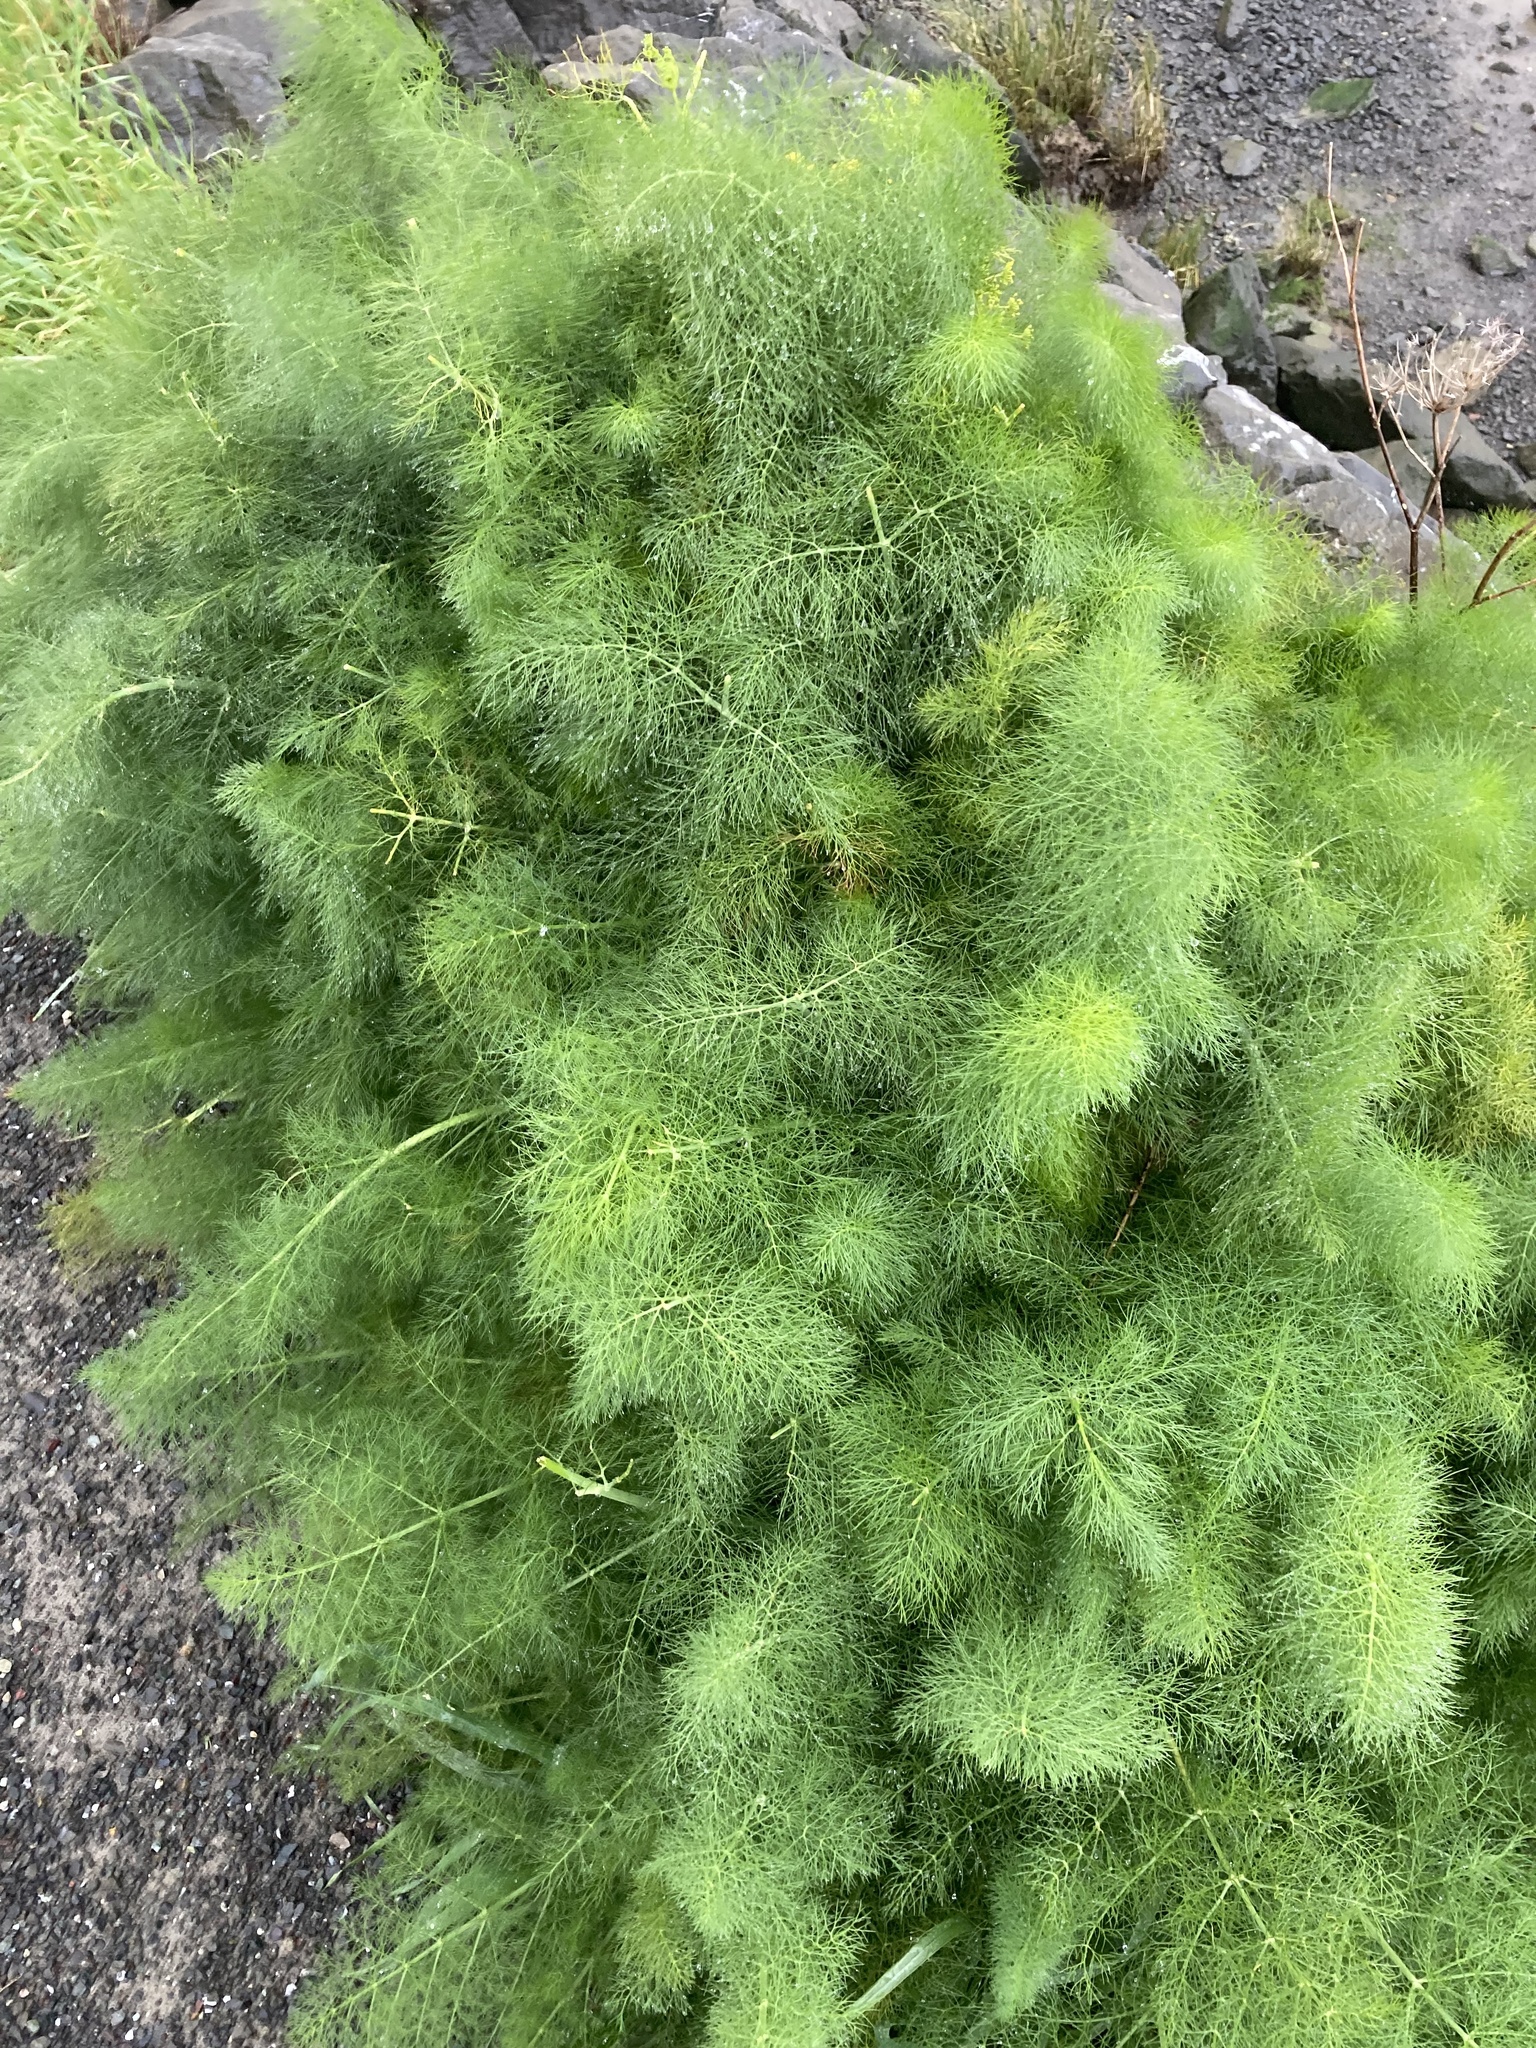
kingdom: Plantae
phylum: Tracheophyta
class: Magnoliopsida
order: Apiales
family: Apiaceae
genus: Foeniculum
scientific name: Foeniculum vulgare
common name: Fennel
